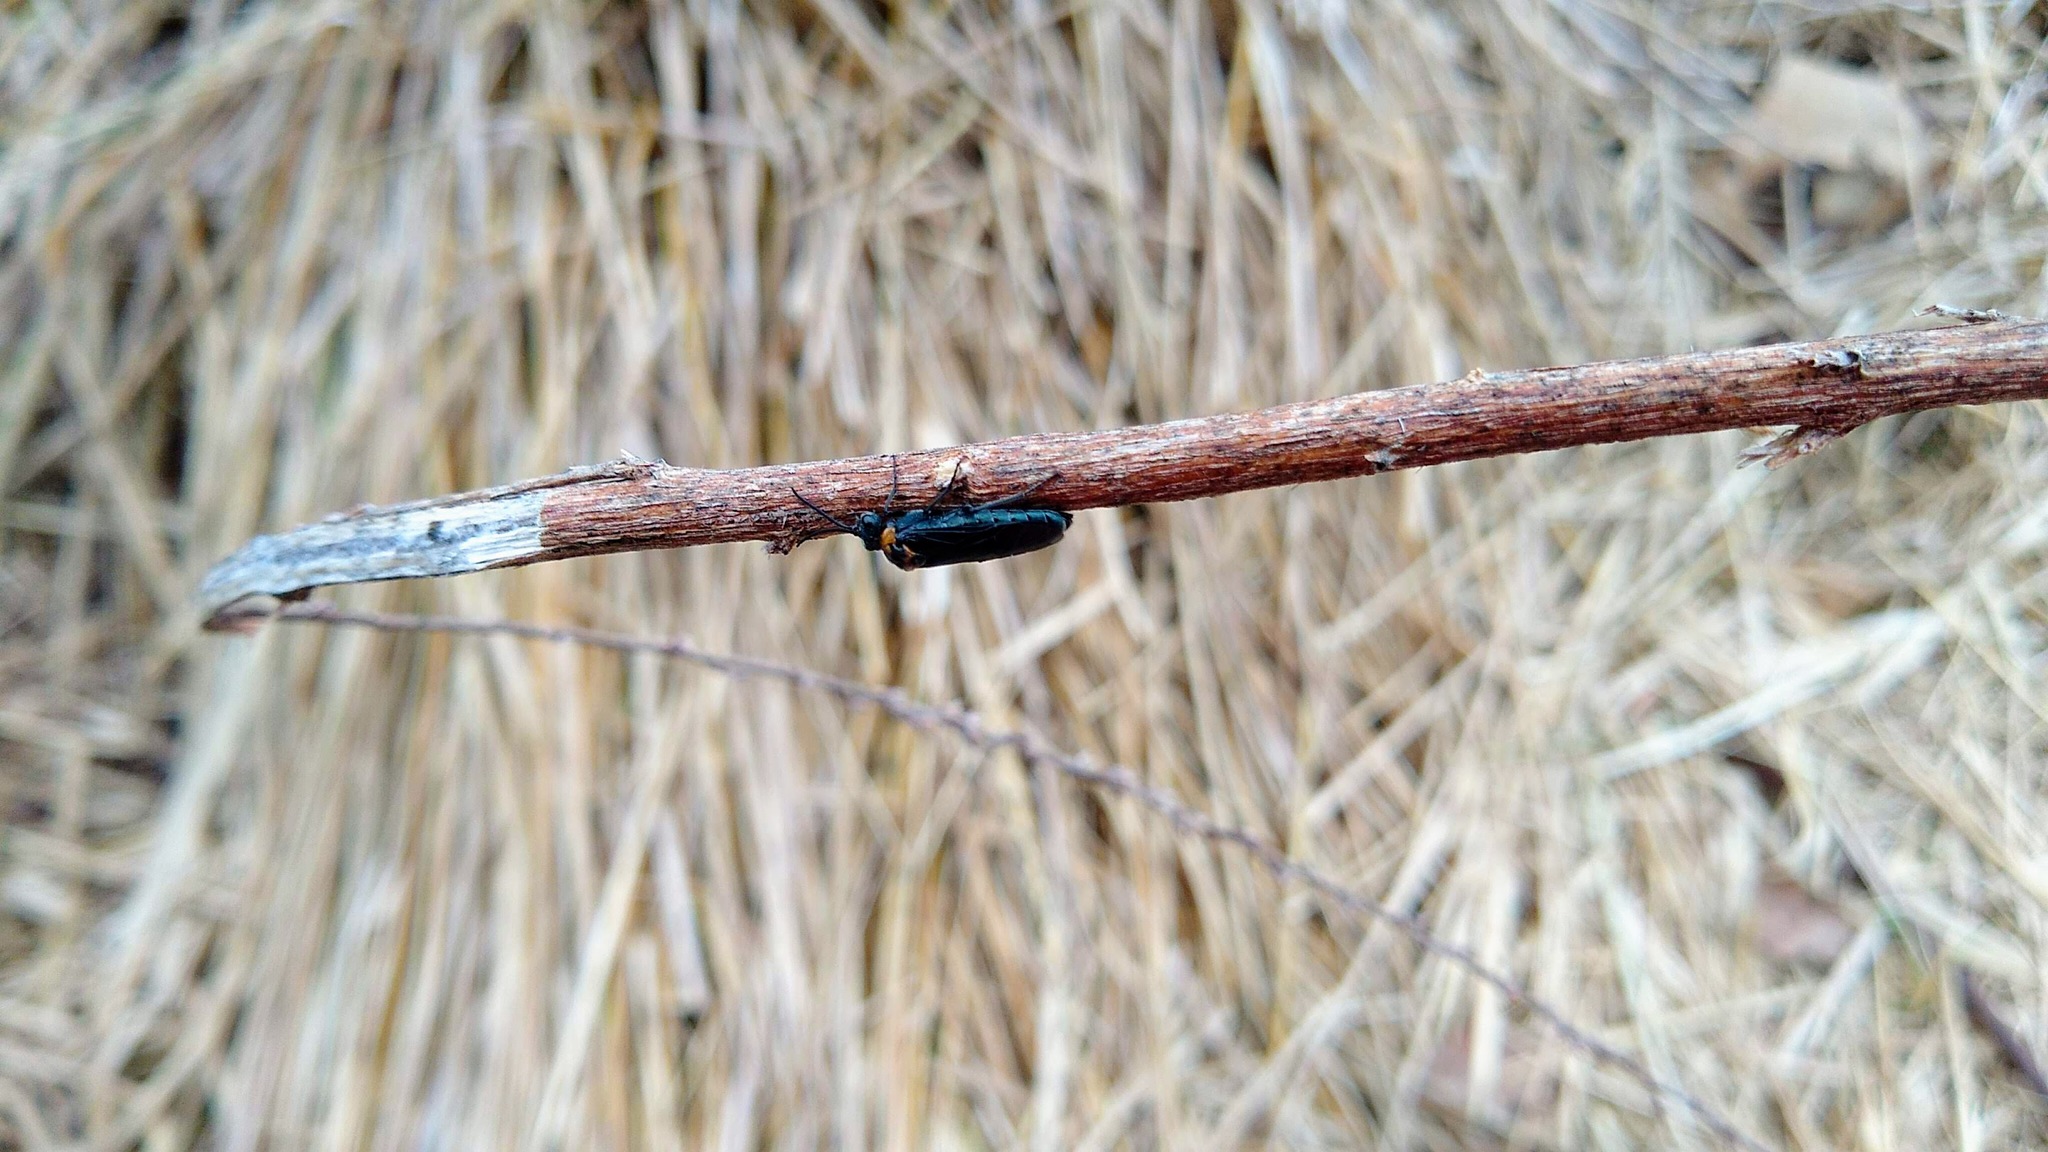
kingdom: Animalia
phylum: Arthropoda
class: Insecta
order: Hymenoptera
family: Tenthredinidae
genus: Dolerus
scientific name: Dolerus unicolor
